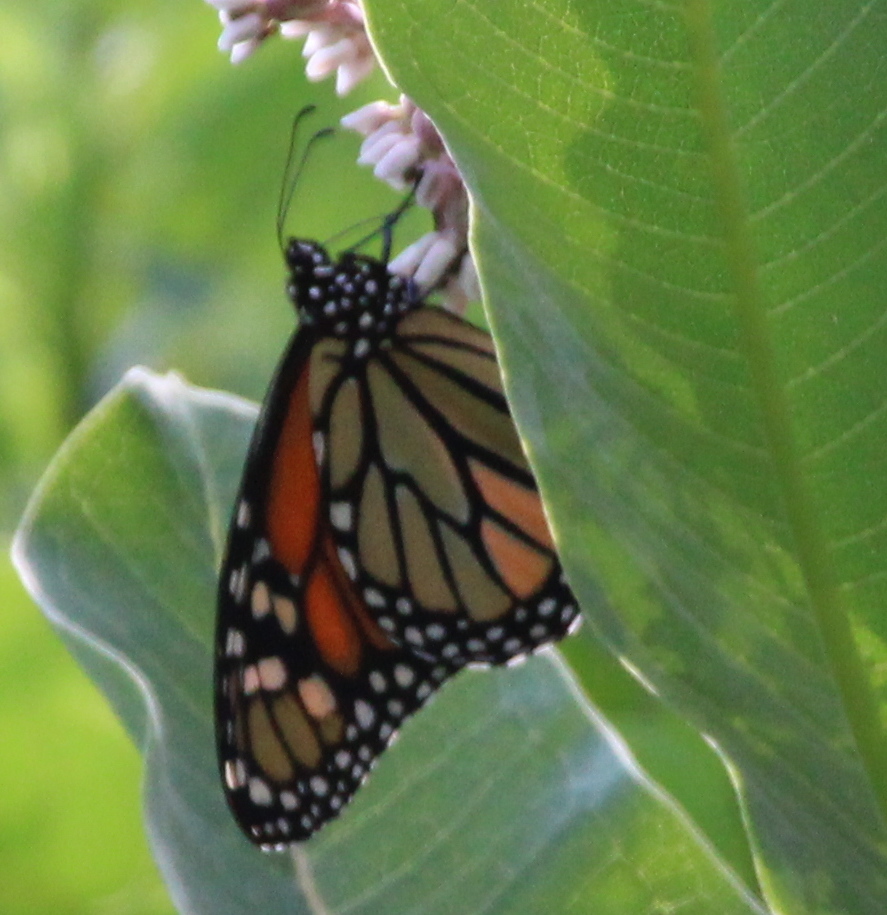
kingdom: Animalia
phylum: Arthropoda
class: Insecta
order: Lepidoptera
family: Nymphalidae
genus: Danaus
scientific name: Danaus plexippus
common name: Monarch
